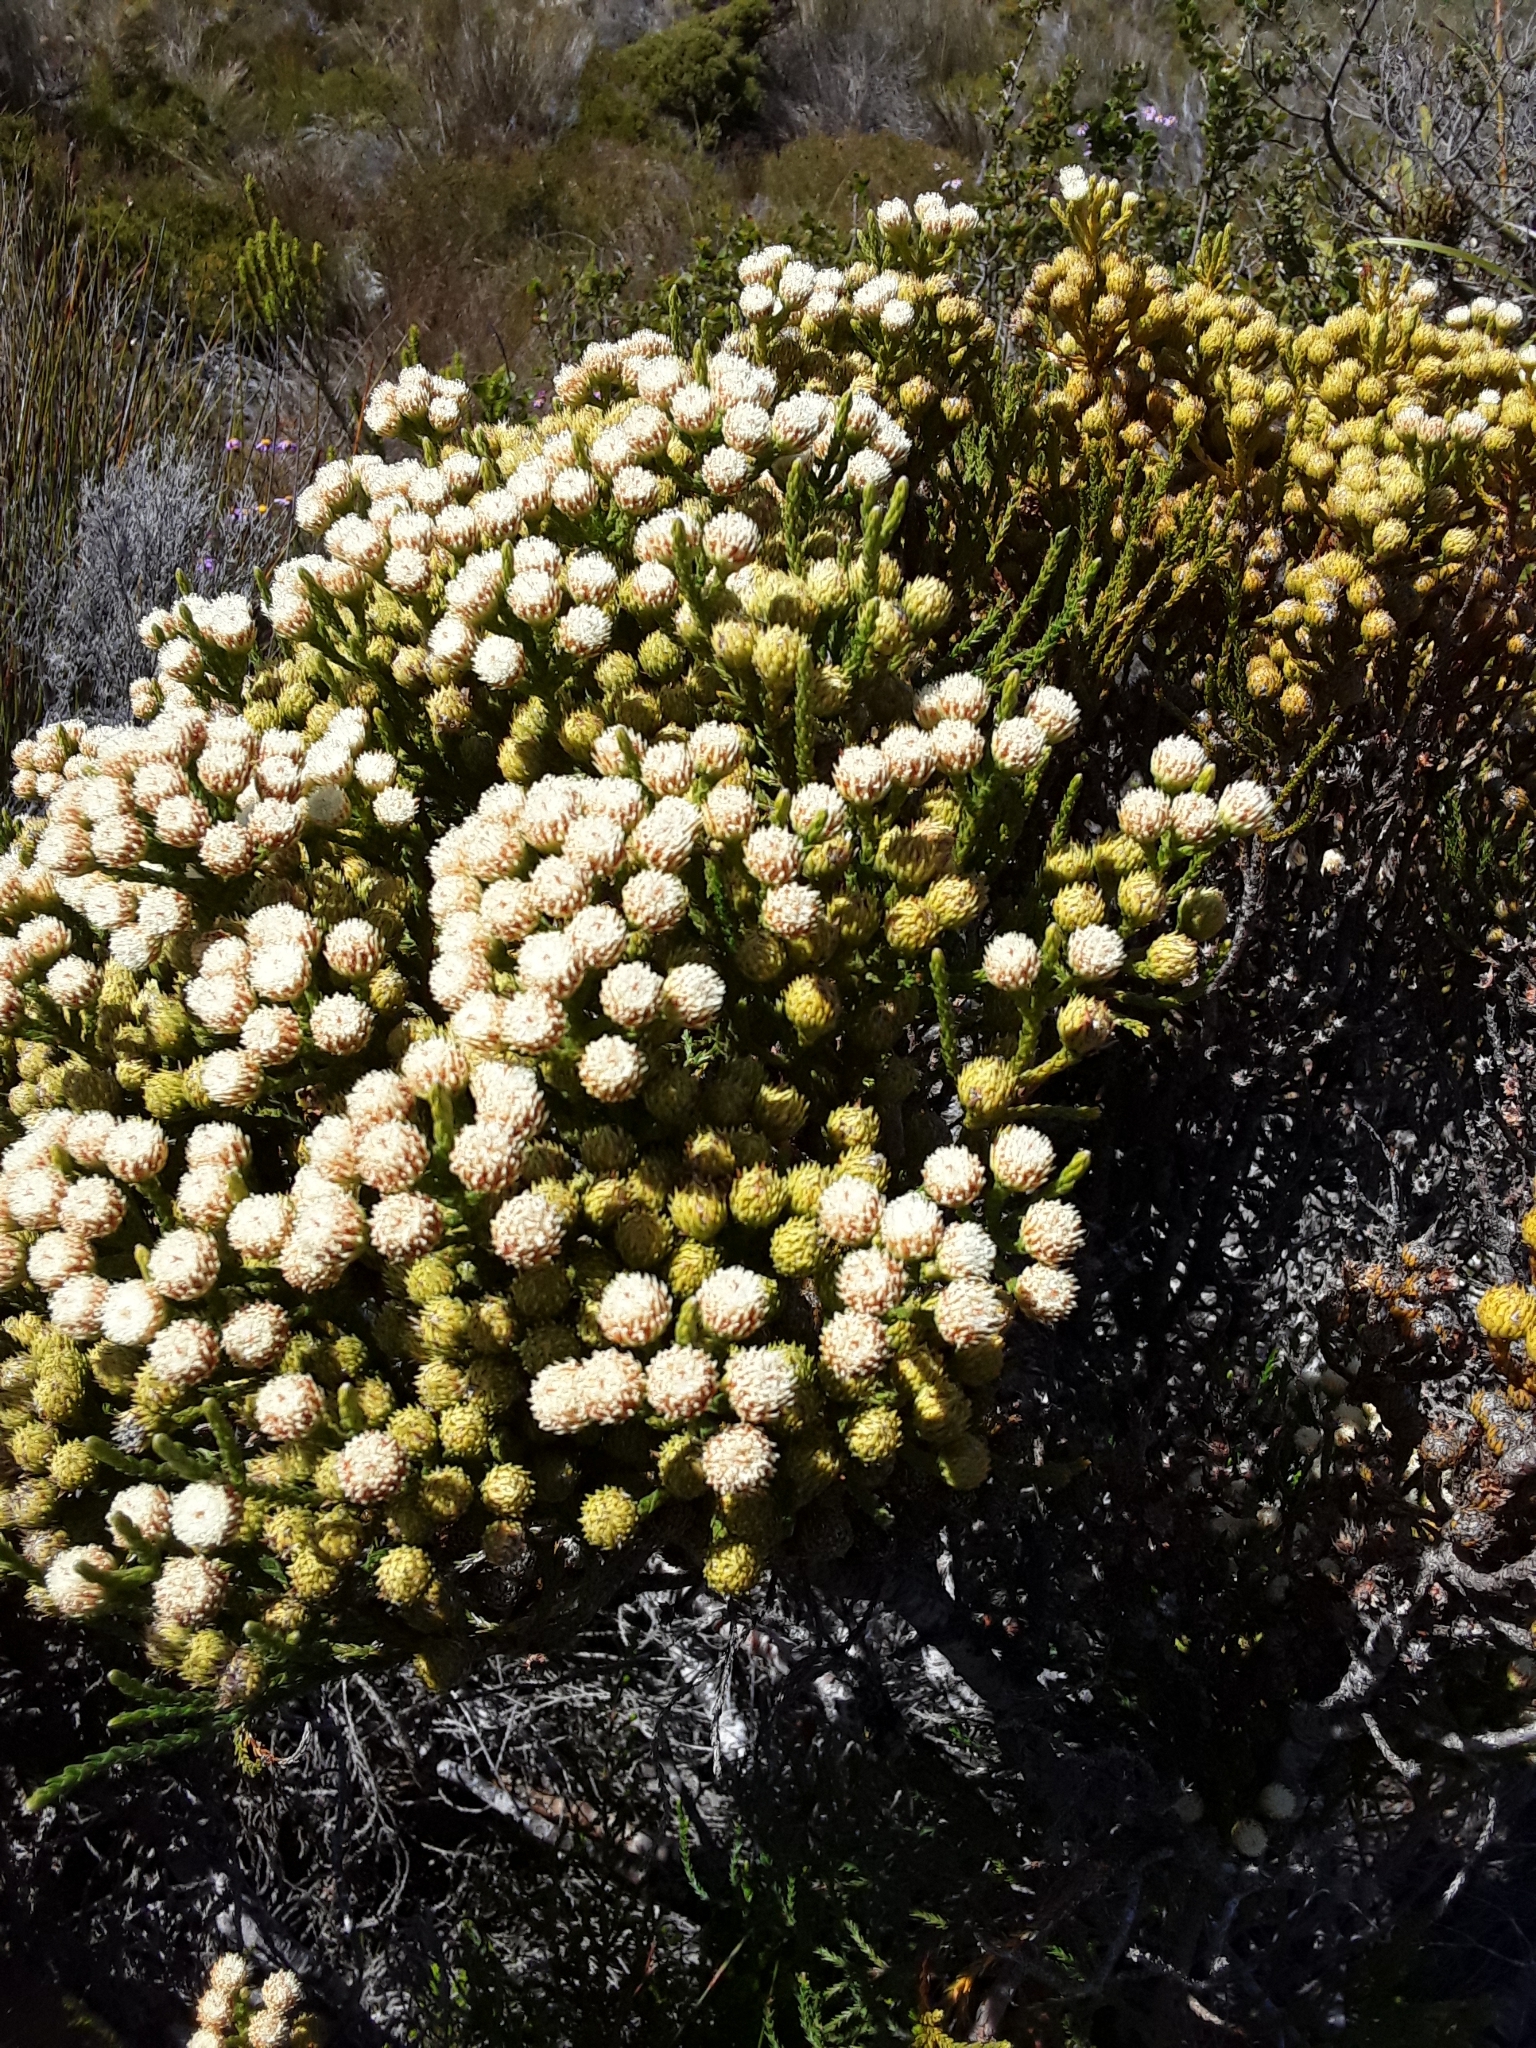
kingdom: Plantae
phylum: Tracheophyta
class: Magnoliopsida
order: Bruniales
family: Bruniaceae
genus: Brunia
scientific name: Brunia paleacea
